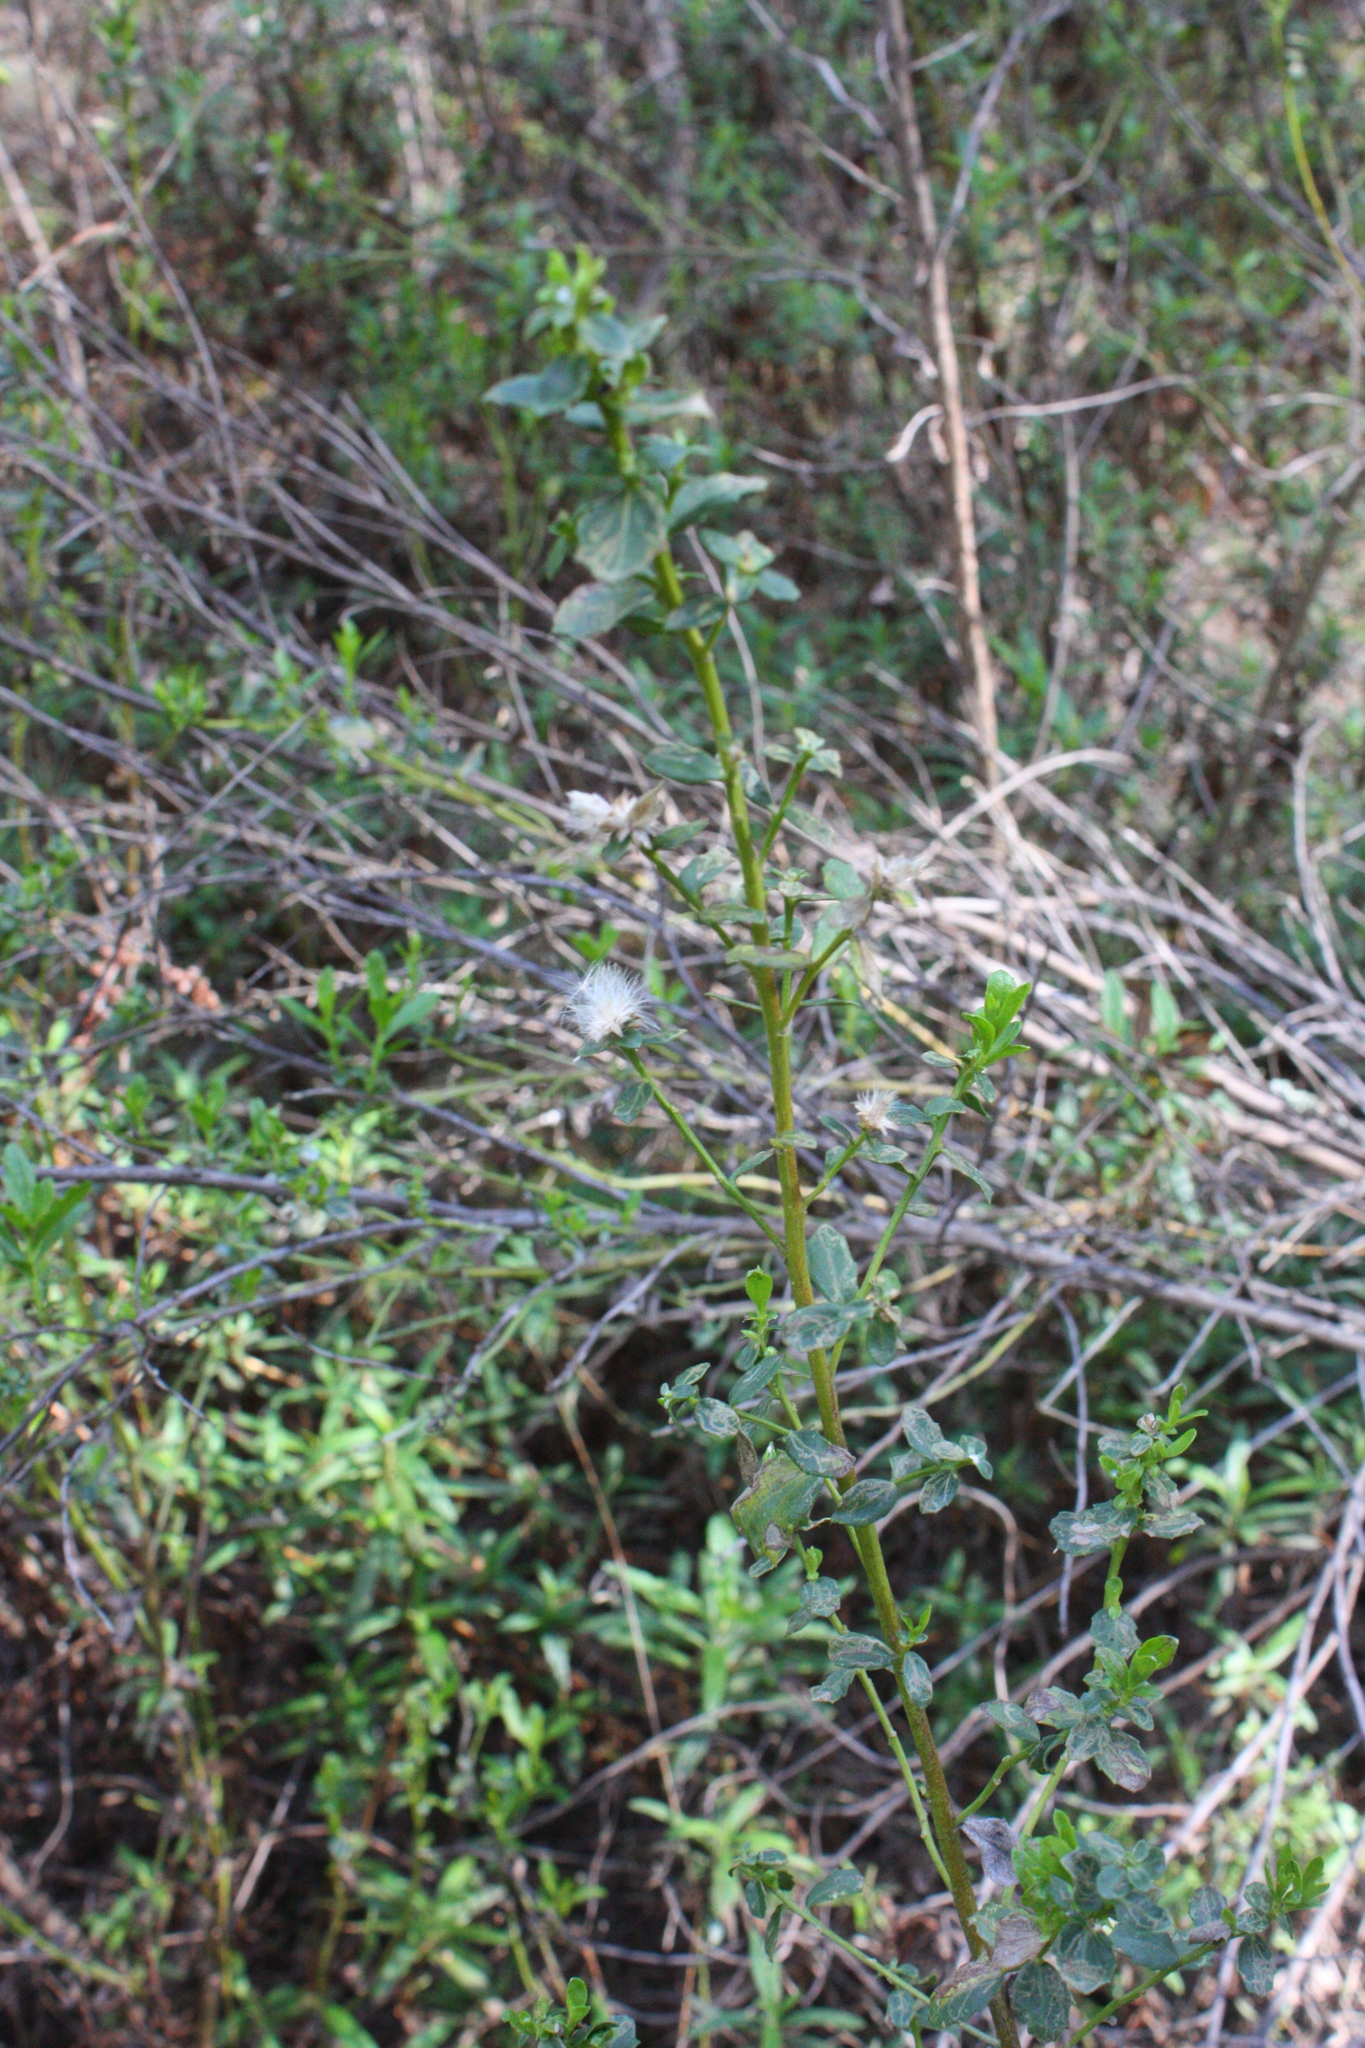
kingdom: Plantae
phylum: Tracheophyta
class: Magnoliopsida
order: Asterales
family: Asteraceae
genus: Baccharis
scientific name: Baccharis pilularis
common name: Coyotebrush
